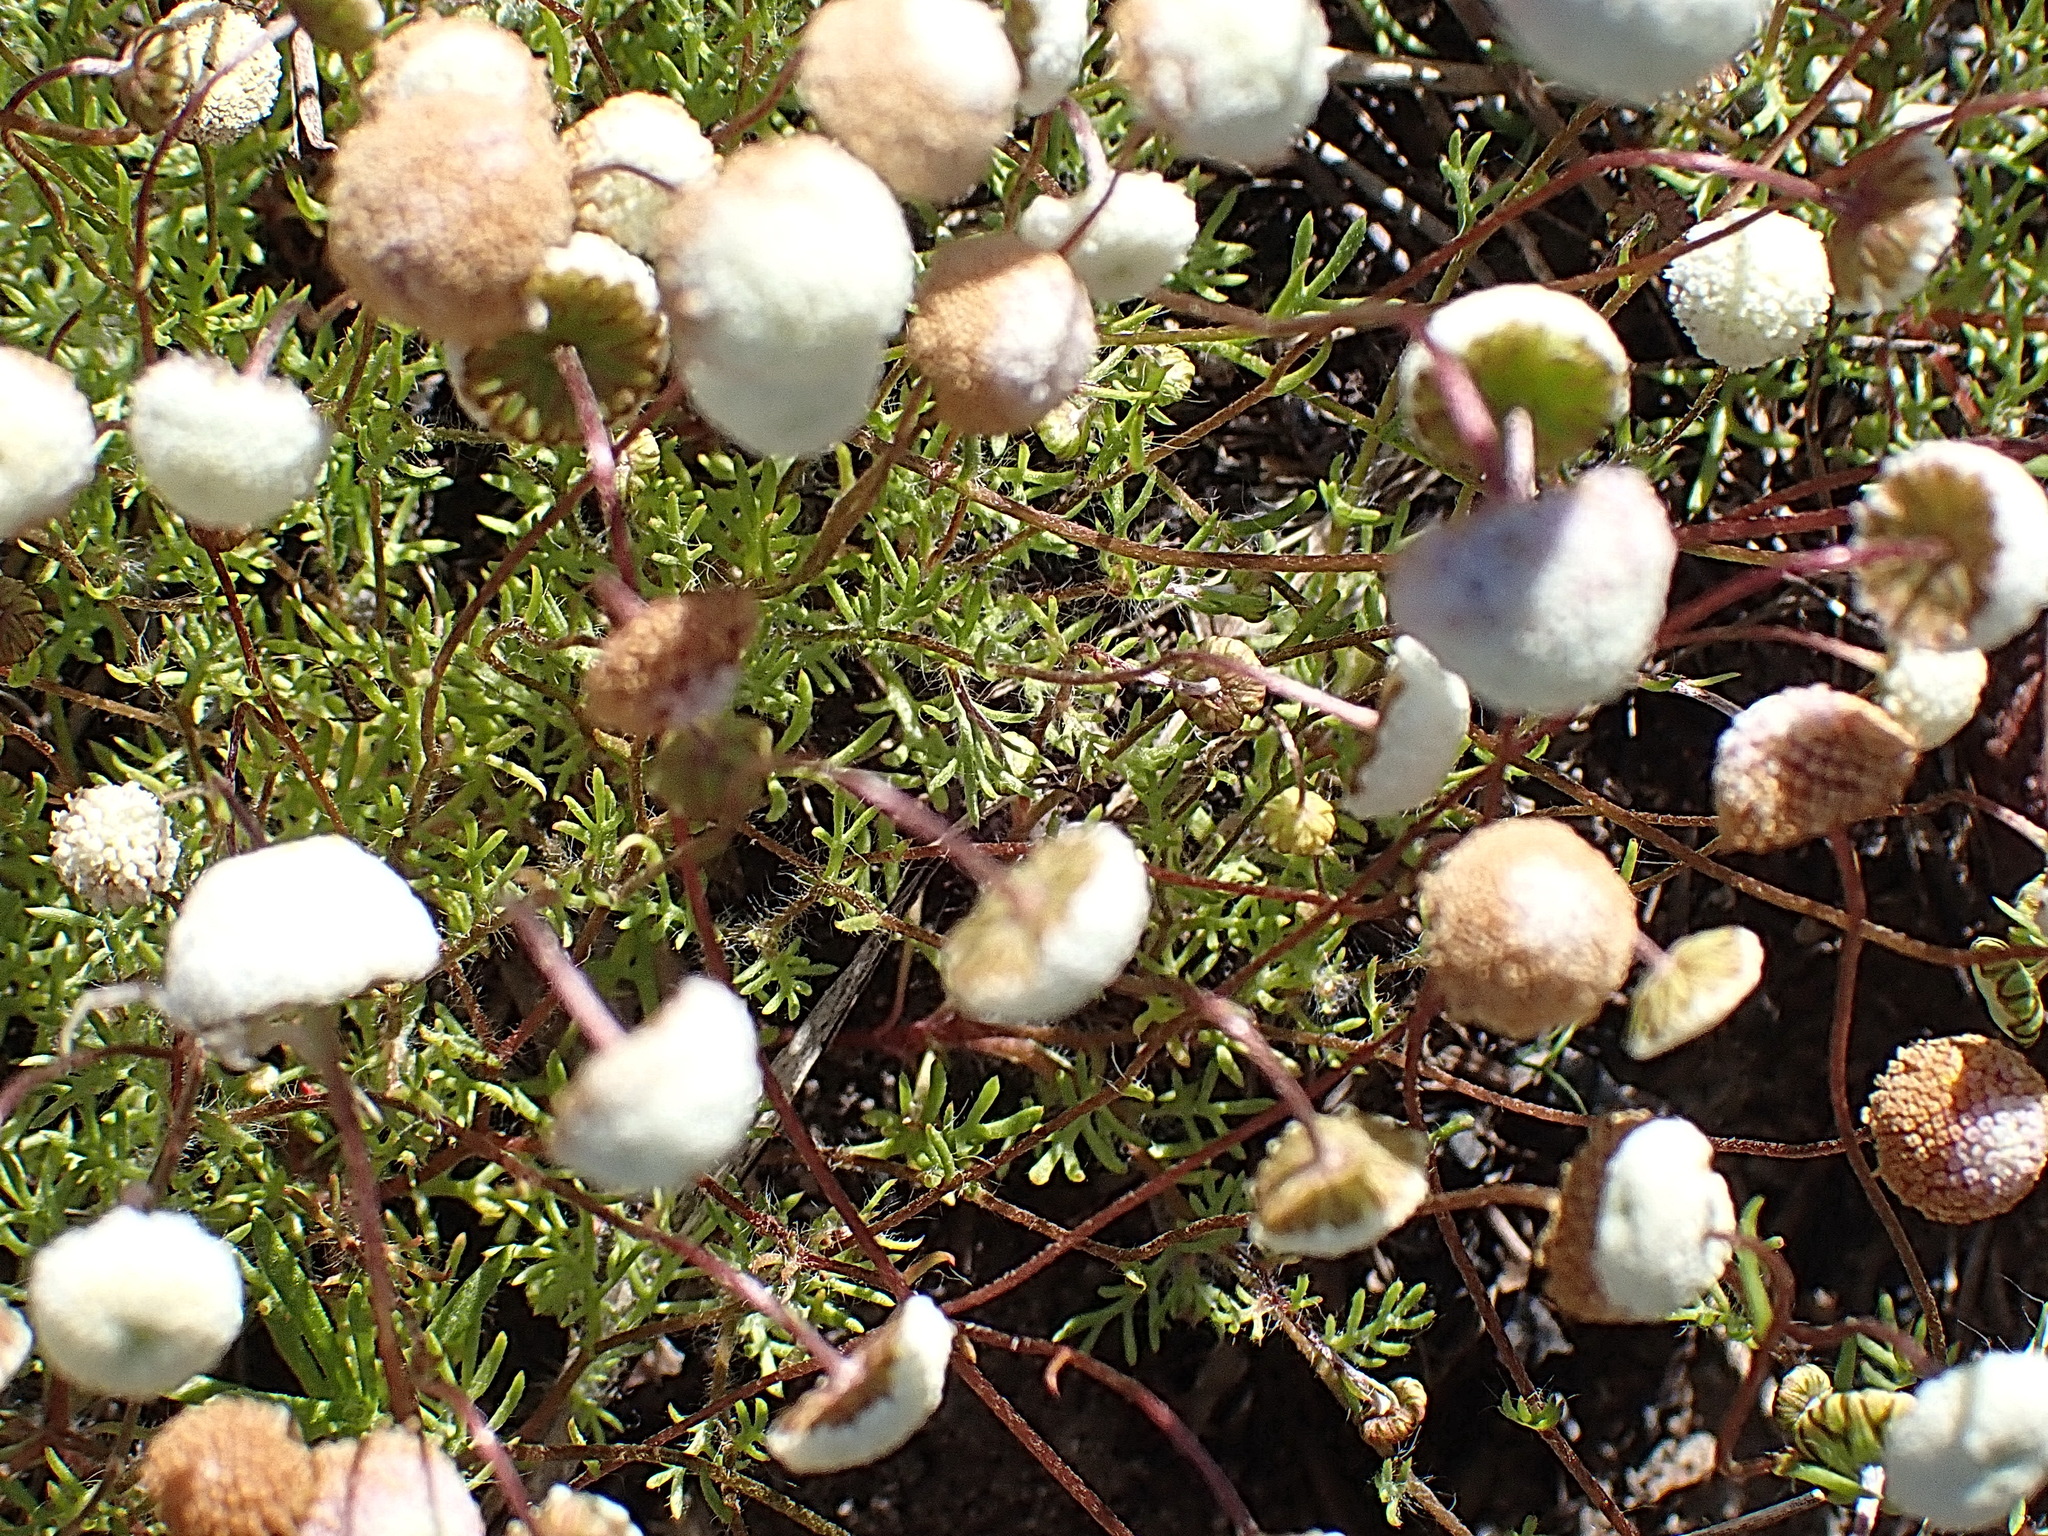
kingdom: Plantae
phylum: Tracheophyta
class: Magnoliopsida
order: Asterales
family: Asteraceae
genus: Cotula
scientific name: Cotula laxa
